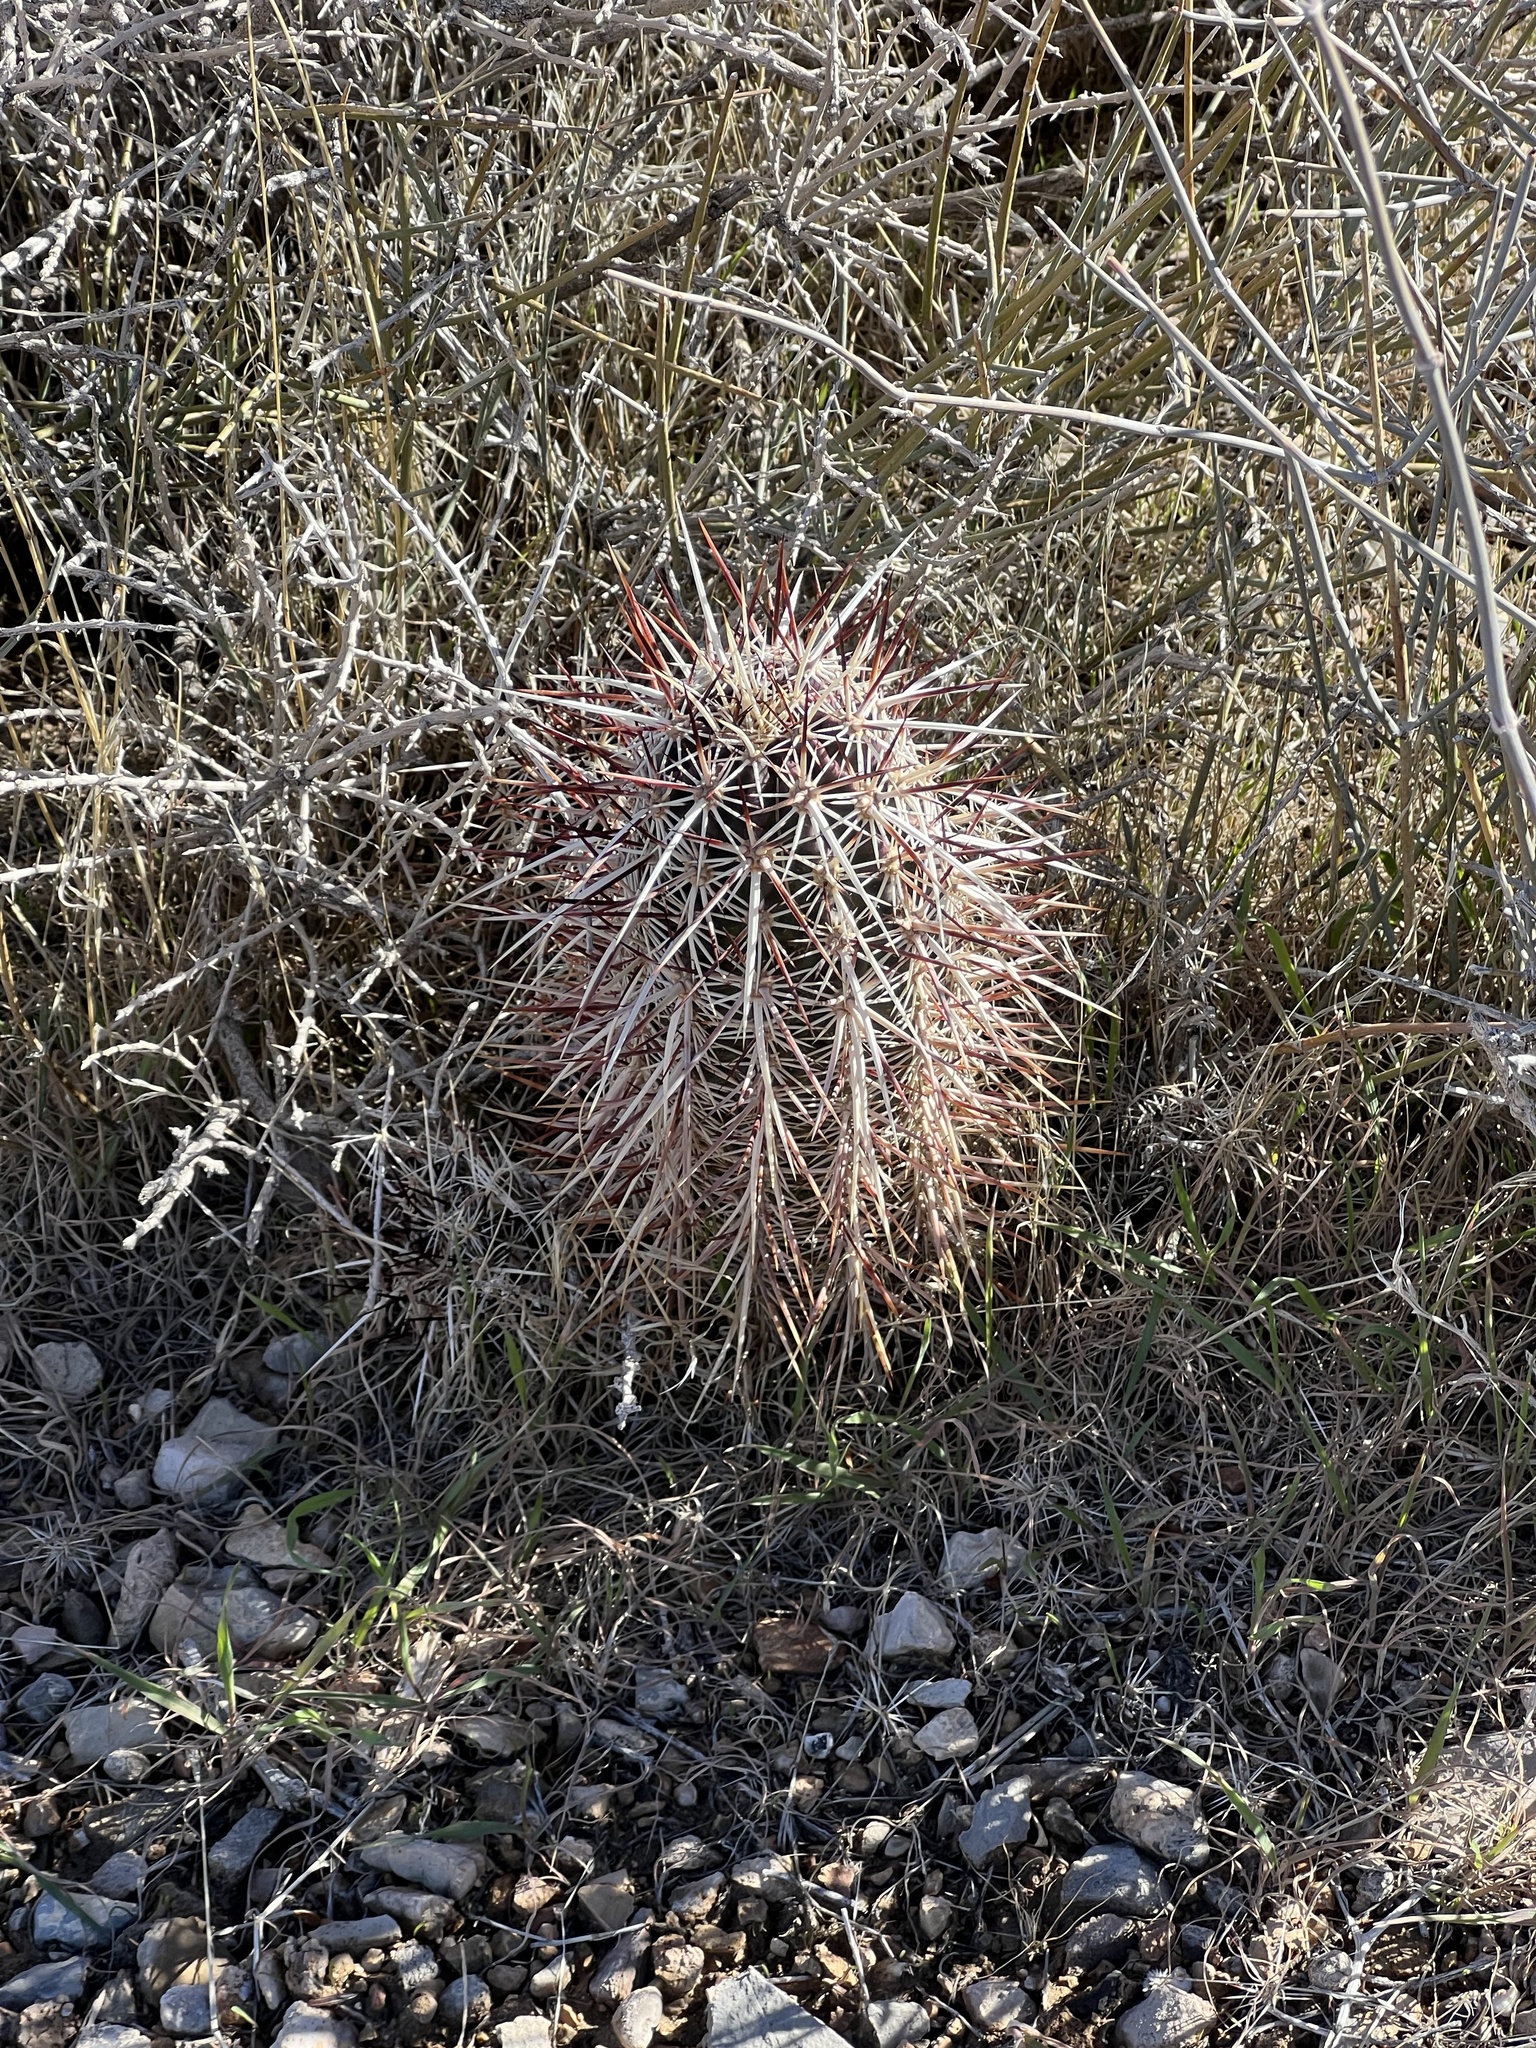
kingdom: Plantae
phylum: Tracheophyta
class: Magnoliopsida
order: Caryophyllales
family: Cactaceae
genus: Echinocereus
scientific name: Echinocereus engelmannii
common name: Engelmann's hedgehog cactus
